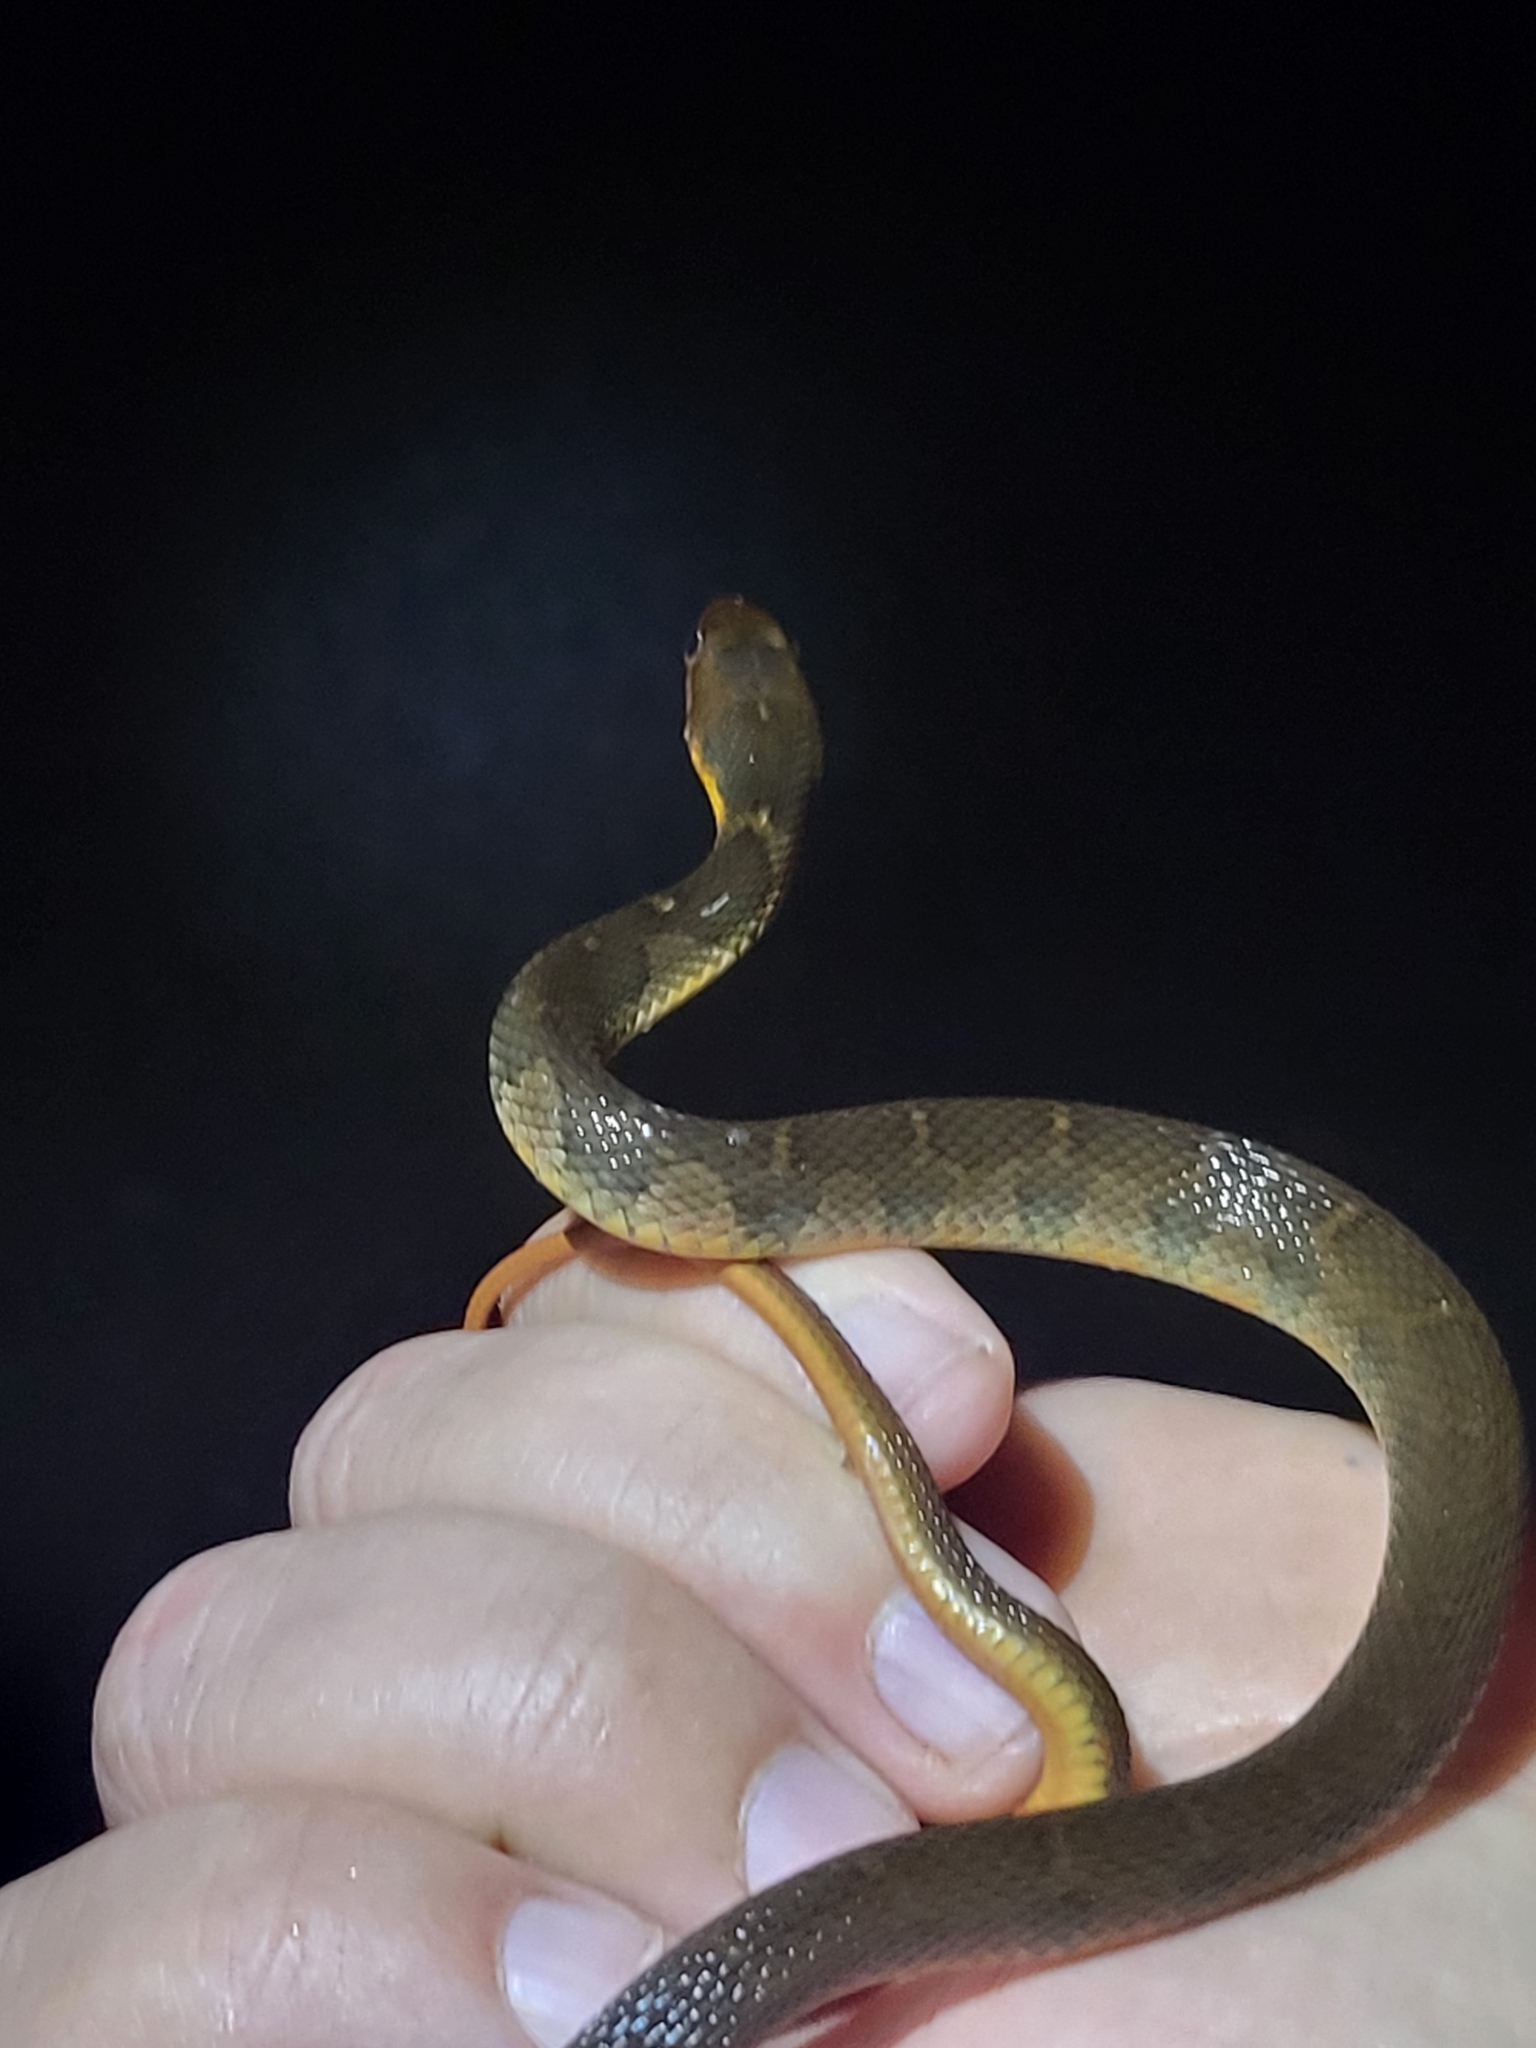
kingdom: Animalia
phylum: Chordata
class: Squamata
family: Colubridae
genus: Nerodia
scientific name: Nerodia erythrogaster
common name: Plainbelly water snake
